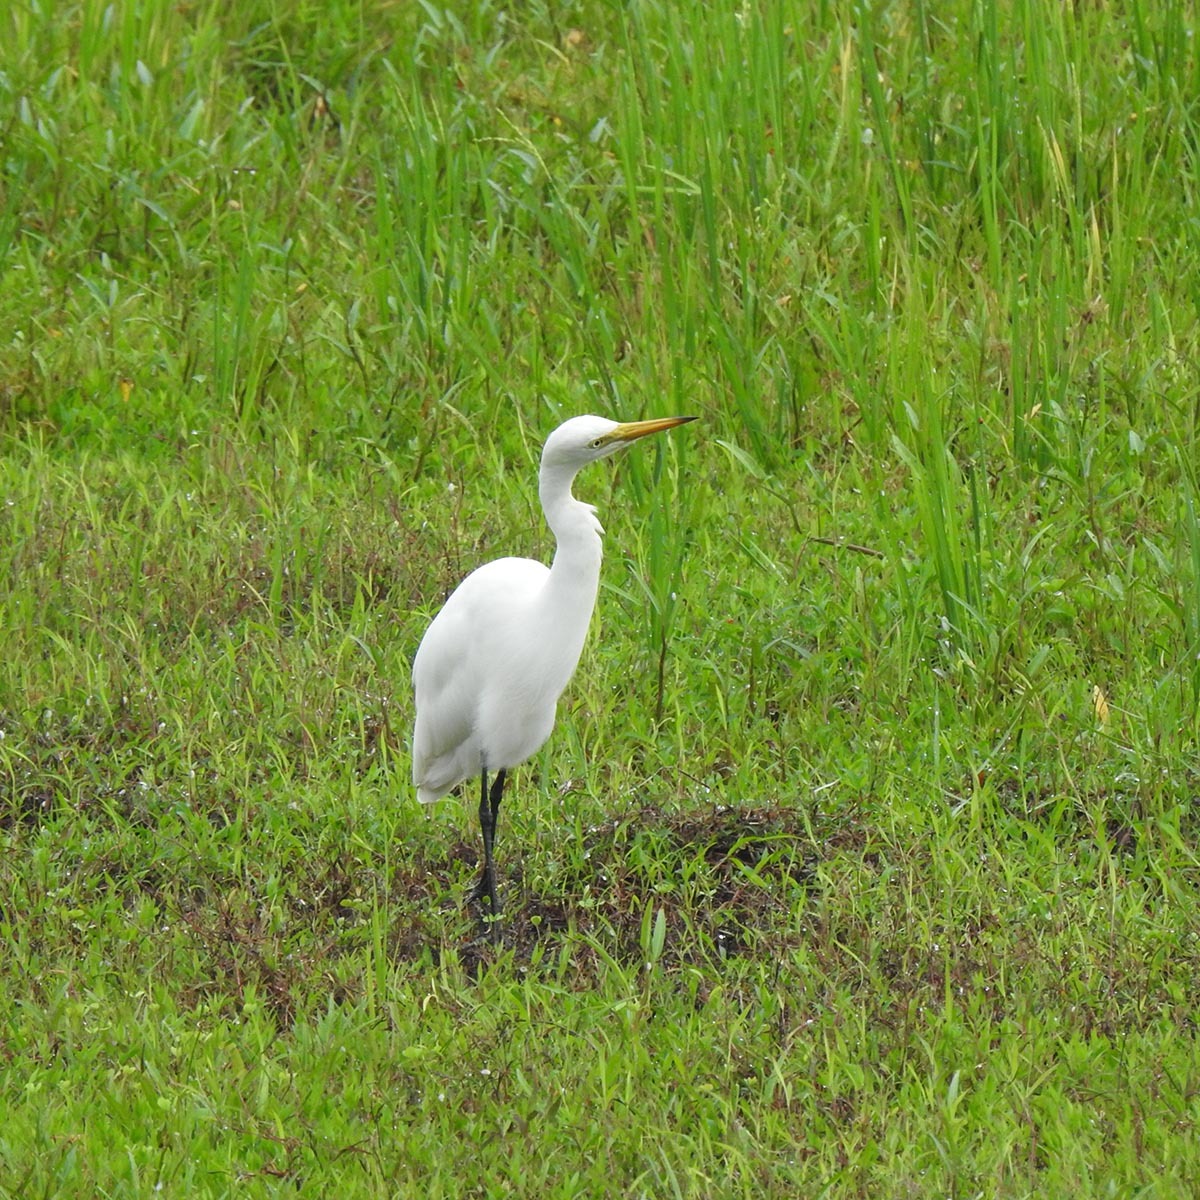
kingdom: Animalia
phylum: Chordata
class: Aves
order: Pelecaniformes
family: Ardeidae
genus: Bubulcus
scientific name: Bubulcus coromandus
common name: Eastern cattle egret
